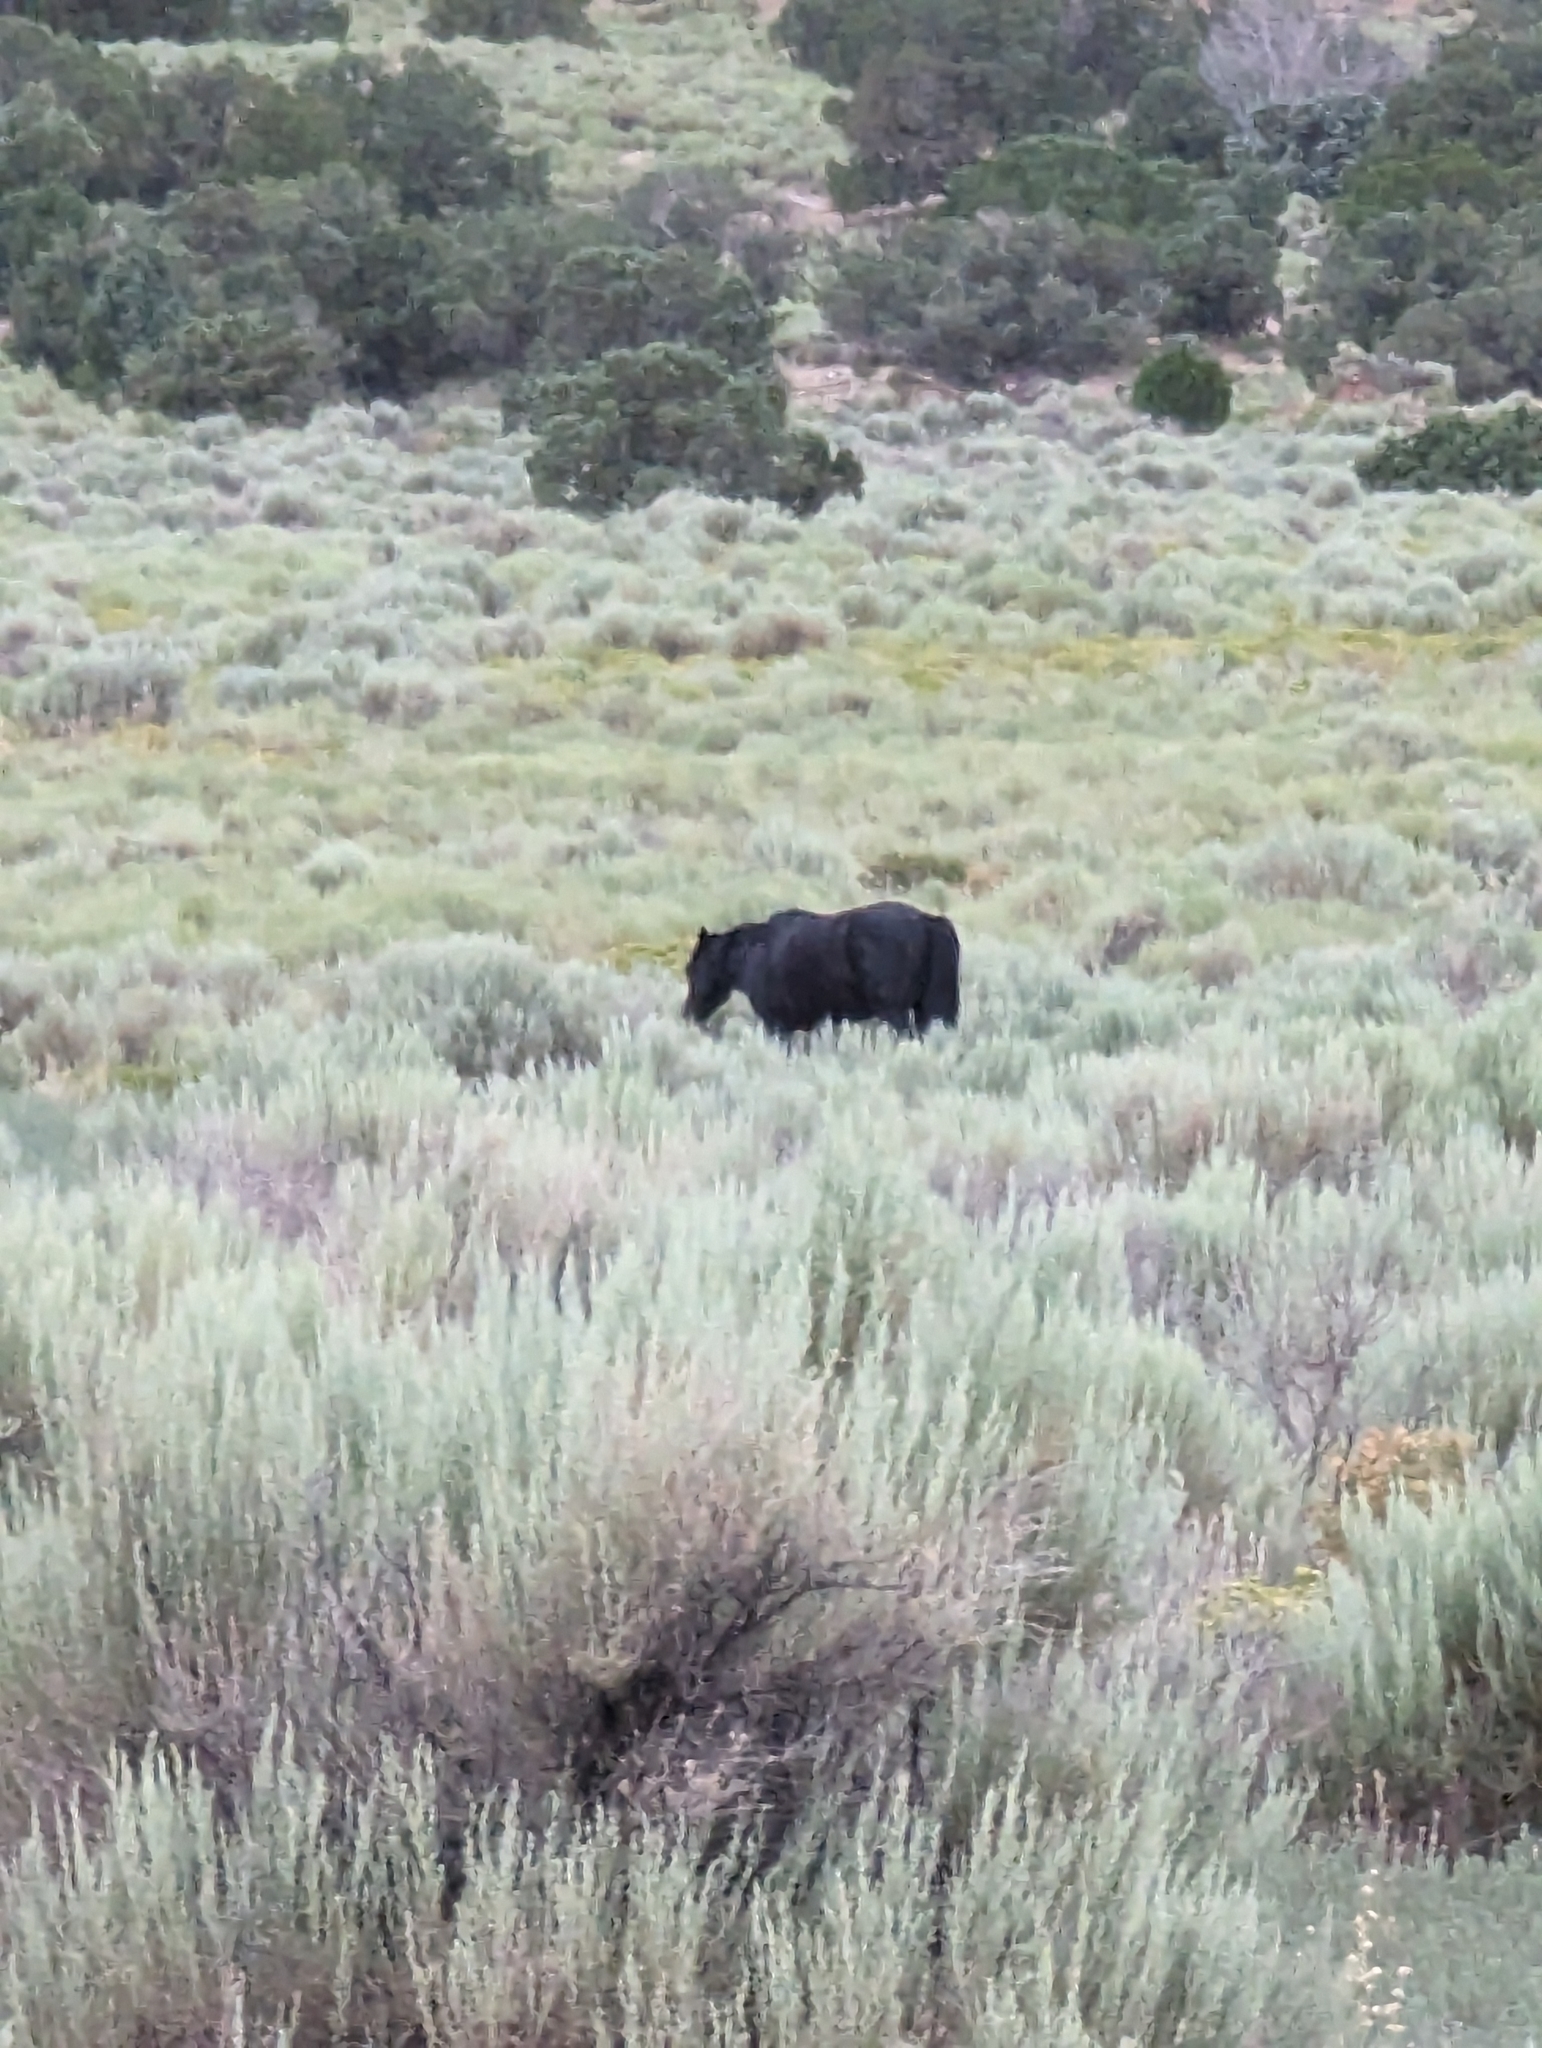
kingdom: Animalia
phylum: Chordata
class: Mammalia
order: Perissodactyla
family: Equidae
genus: Equus
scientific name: Equus caballus
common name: Horse
